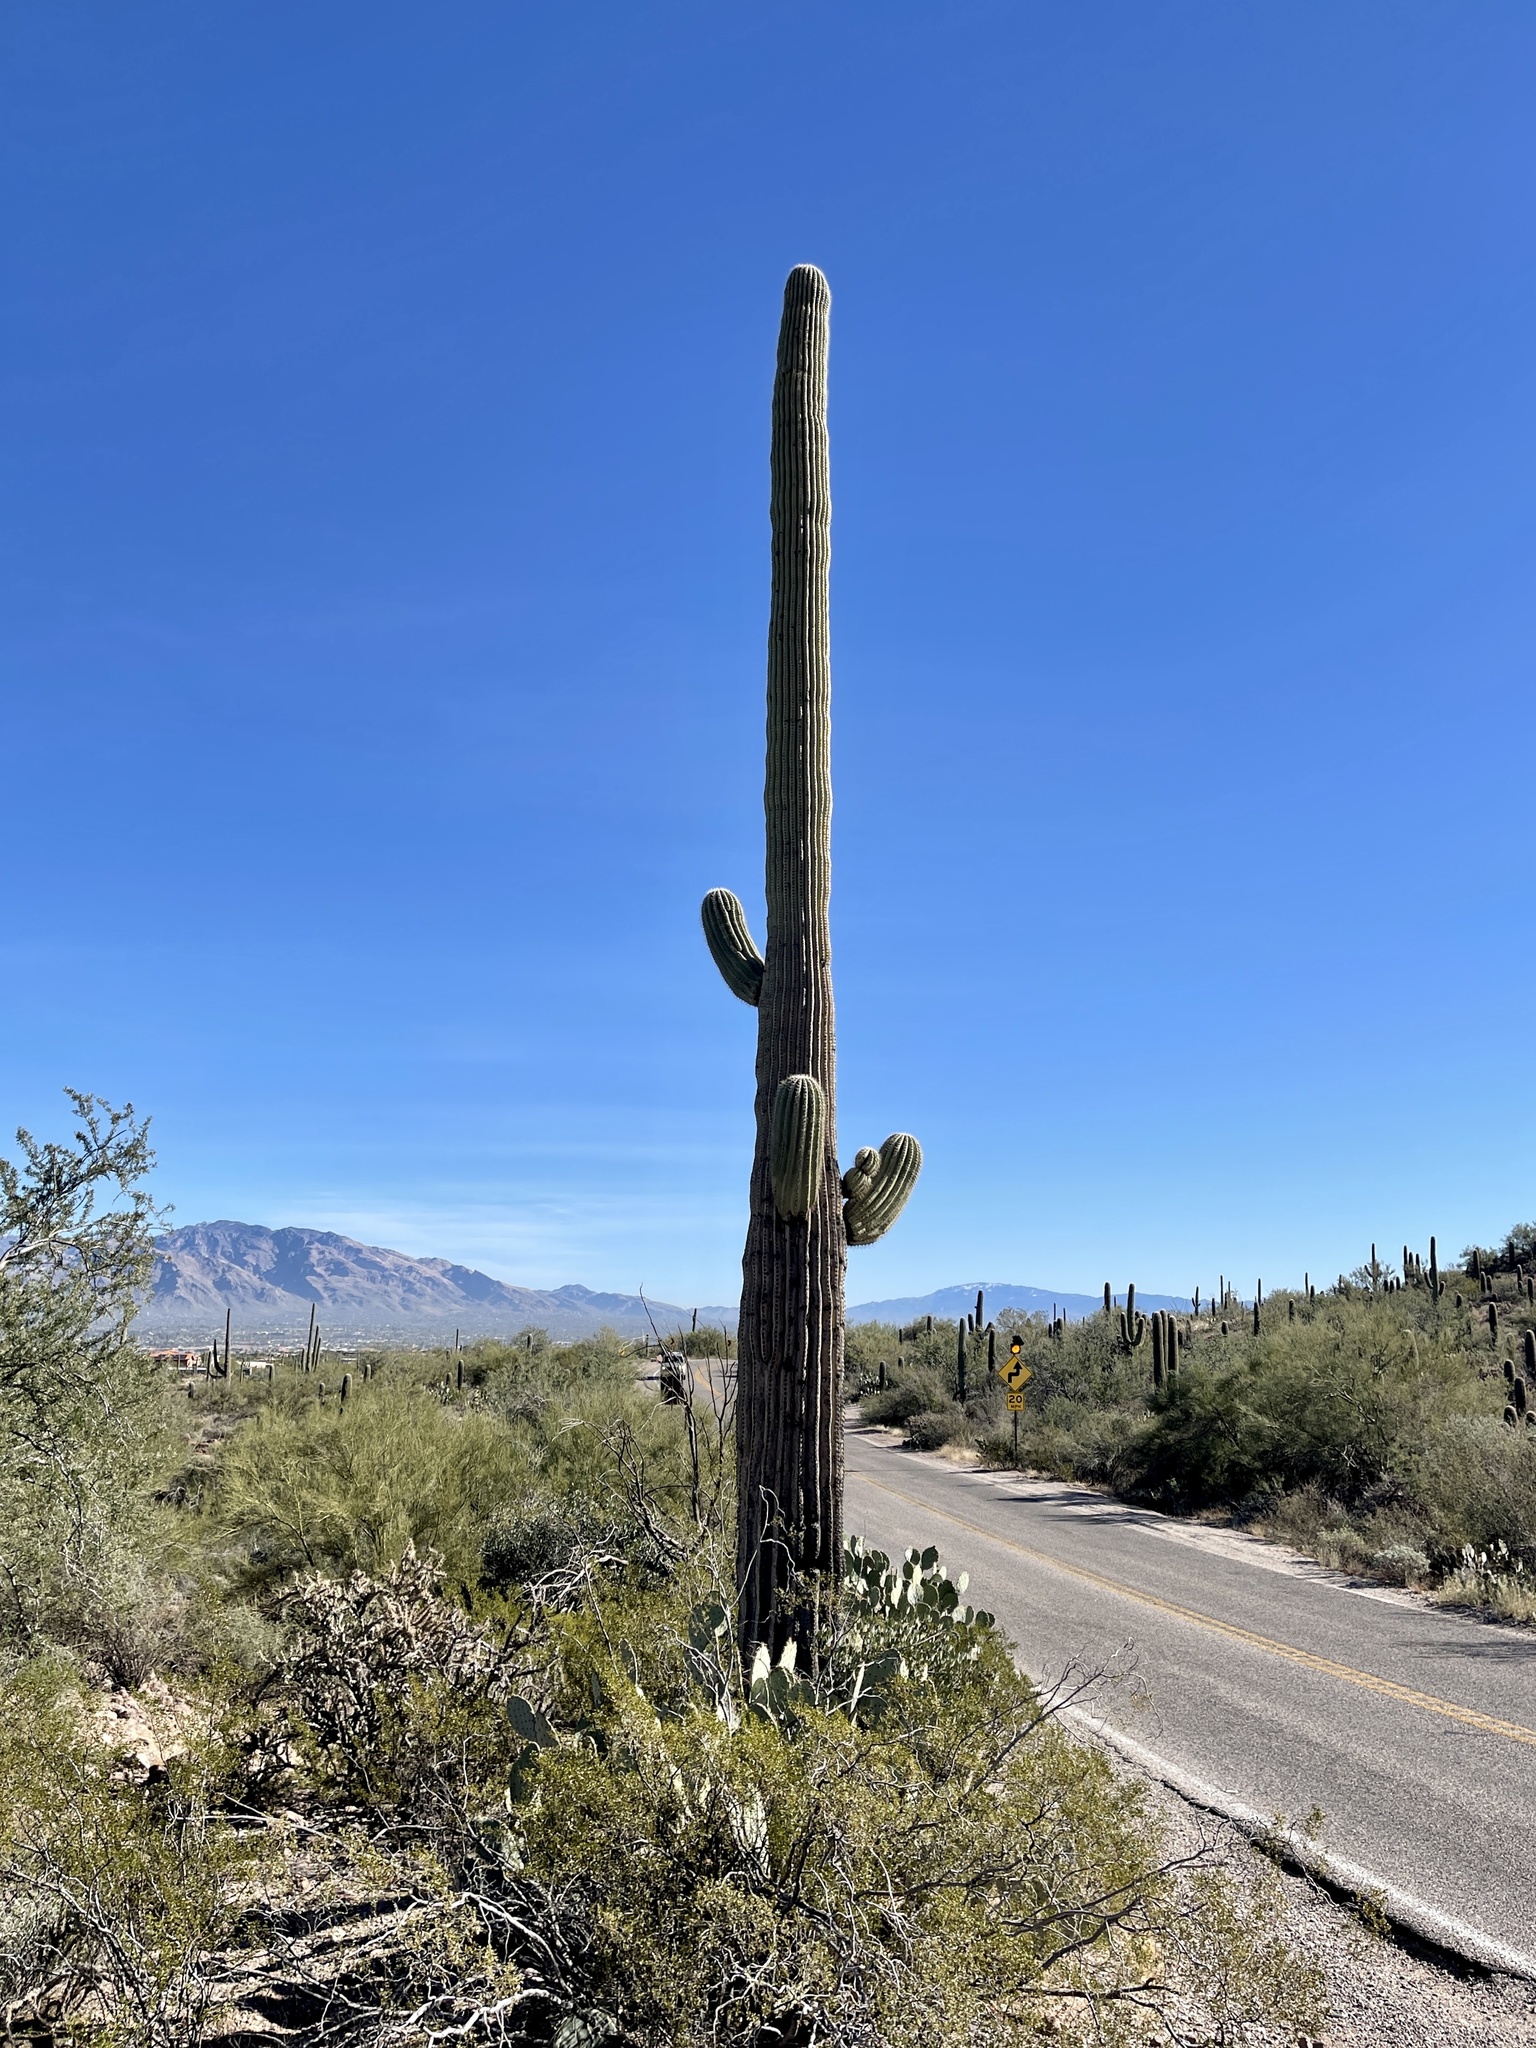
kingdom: Plantae
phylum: Tracheophyta
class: Magnoliopsida
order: Caryophyllales
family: Cactaceae
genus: Carnegiea
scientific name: Carnegiea gigantea
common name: Saguaro
